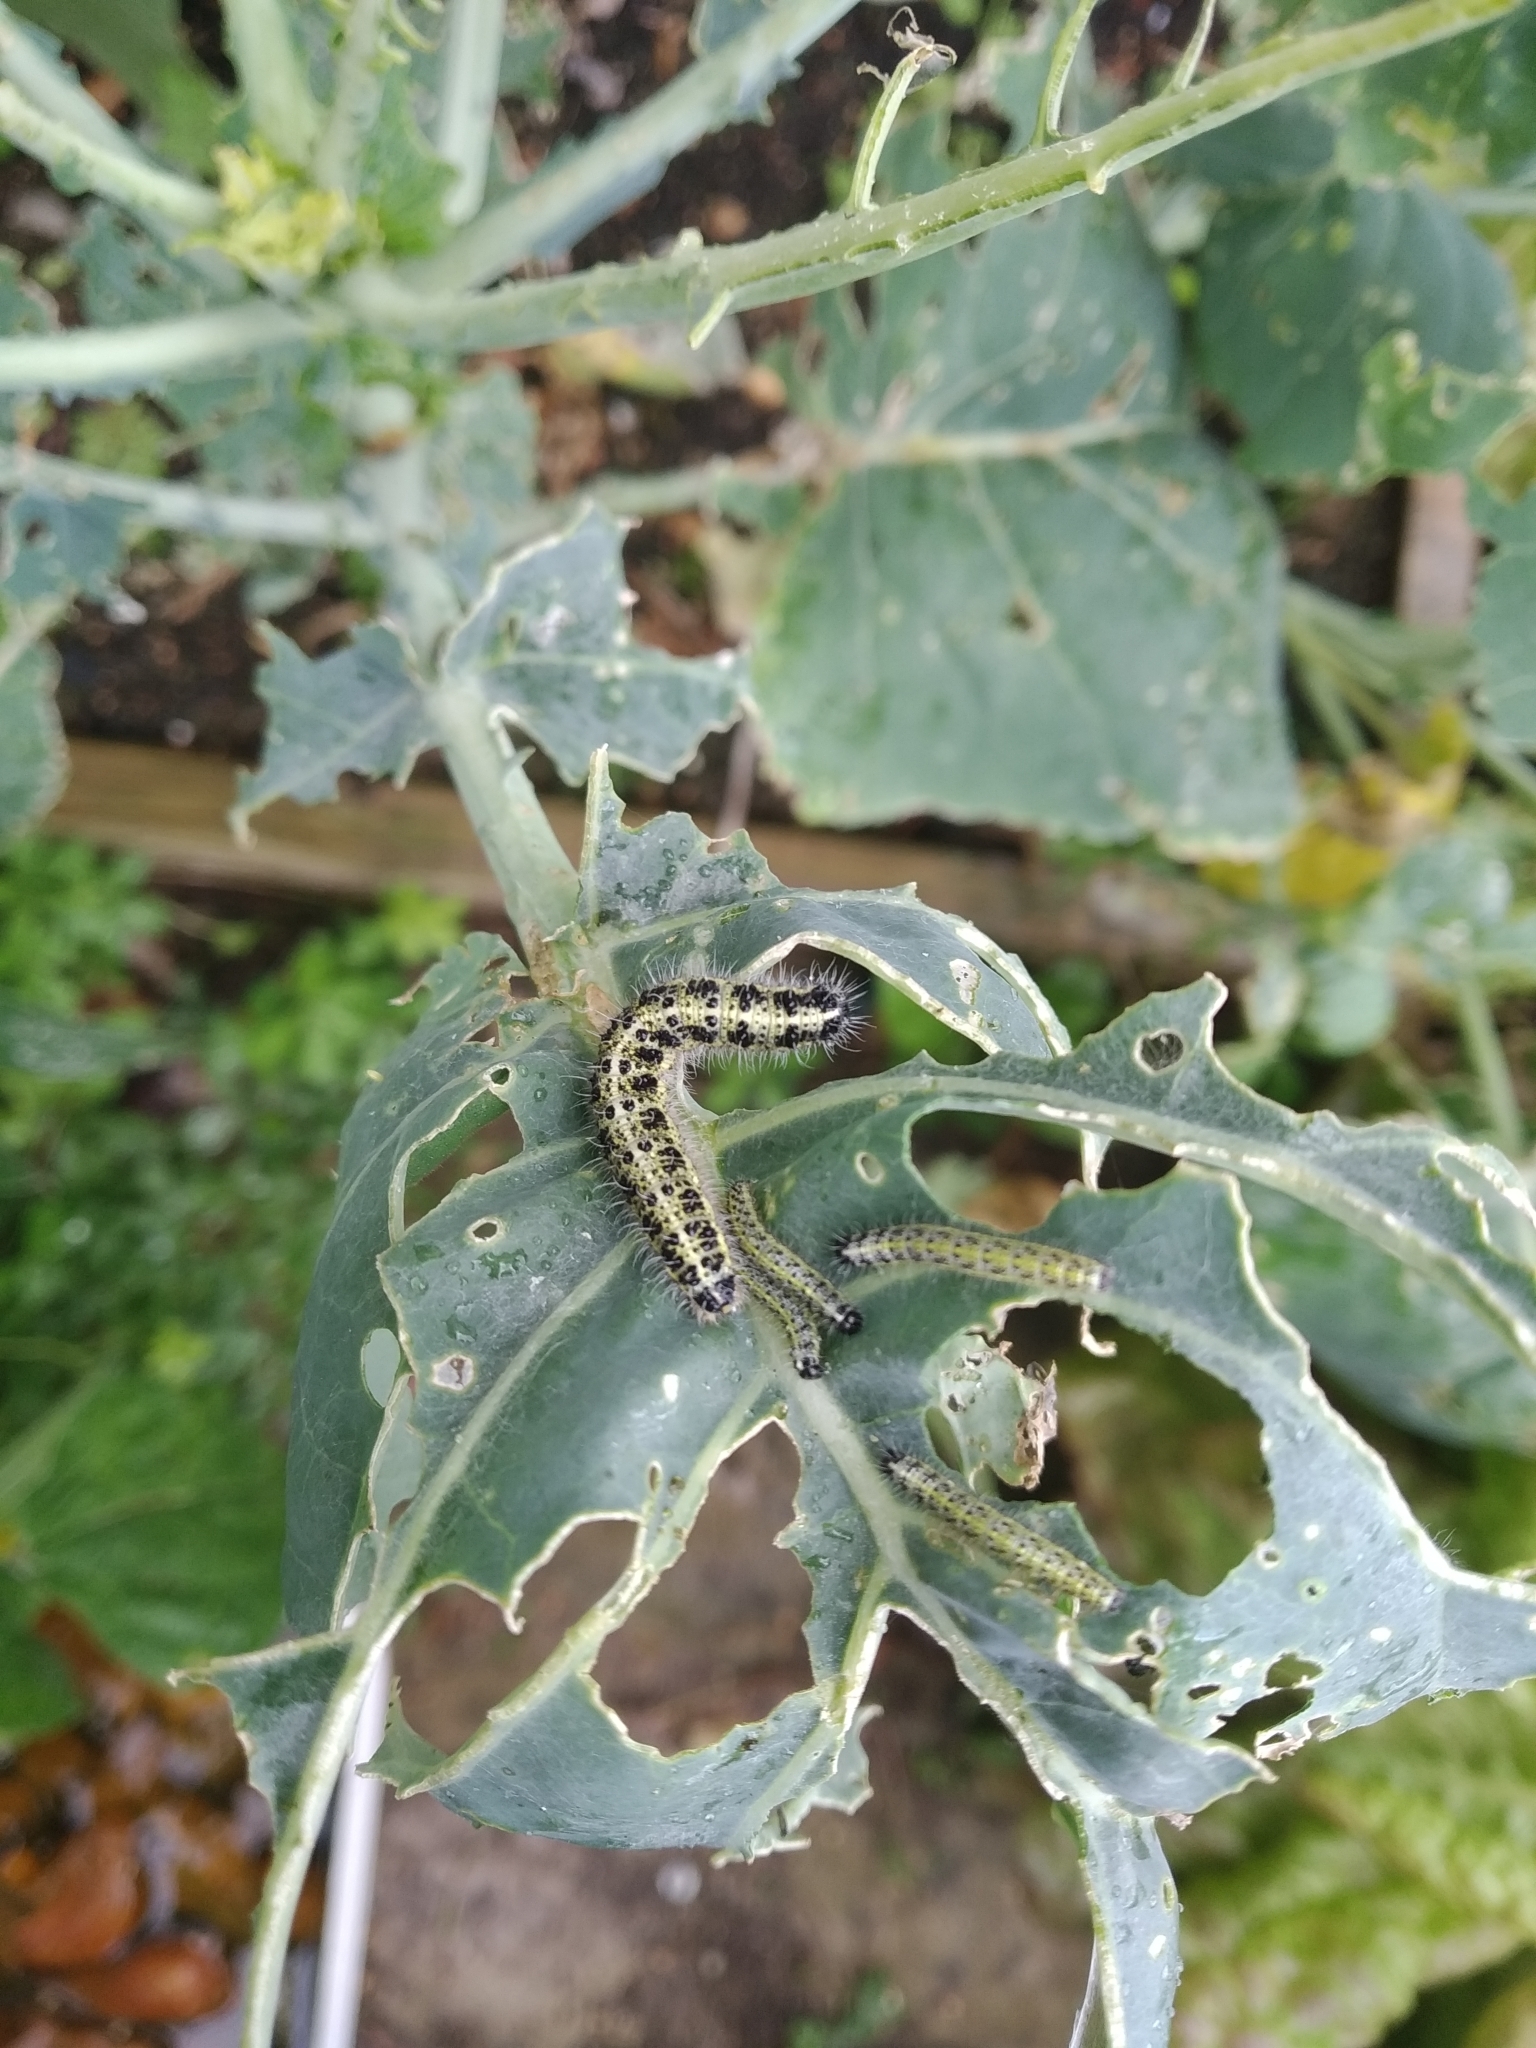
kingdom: Animalia
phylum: Arthropoda
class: Insecta
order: Lepidoptera
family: Pieridae
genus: Pieris
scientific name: Pieris brassicae
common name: Large white
